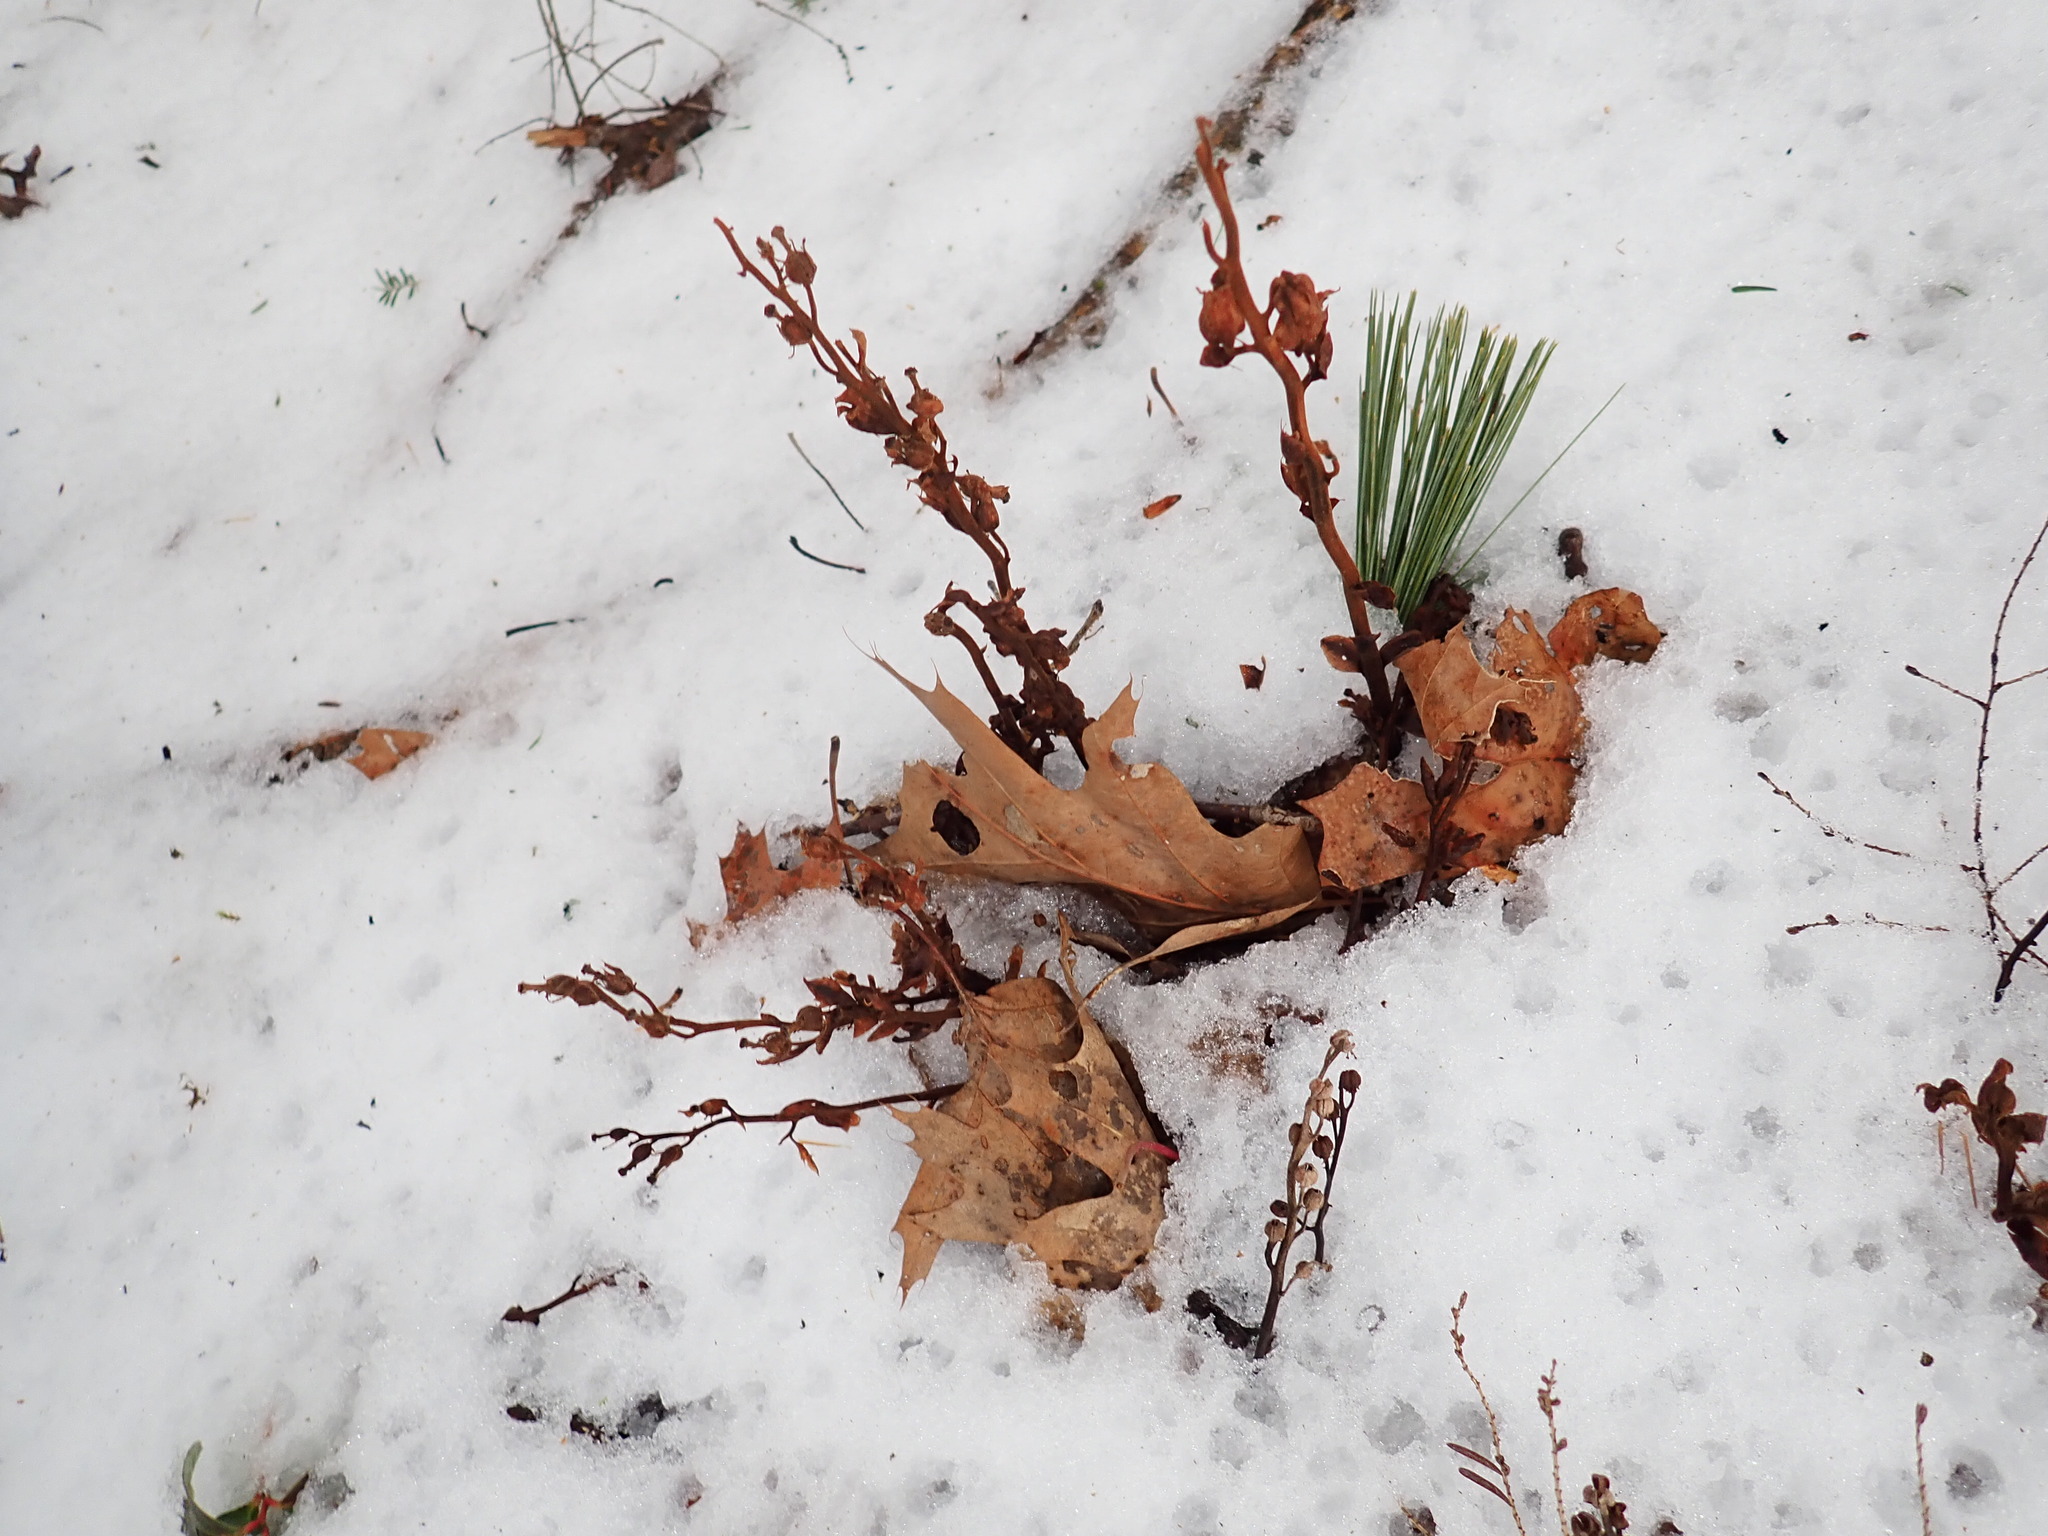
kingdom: Plantae
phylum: Tracheophyta
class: Magnoliopsida
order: Ericales
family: Ericaceae
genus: Hypopitys
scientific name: Hypopitys monotropa
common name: Yellow bird's-nest
